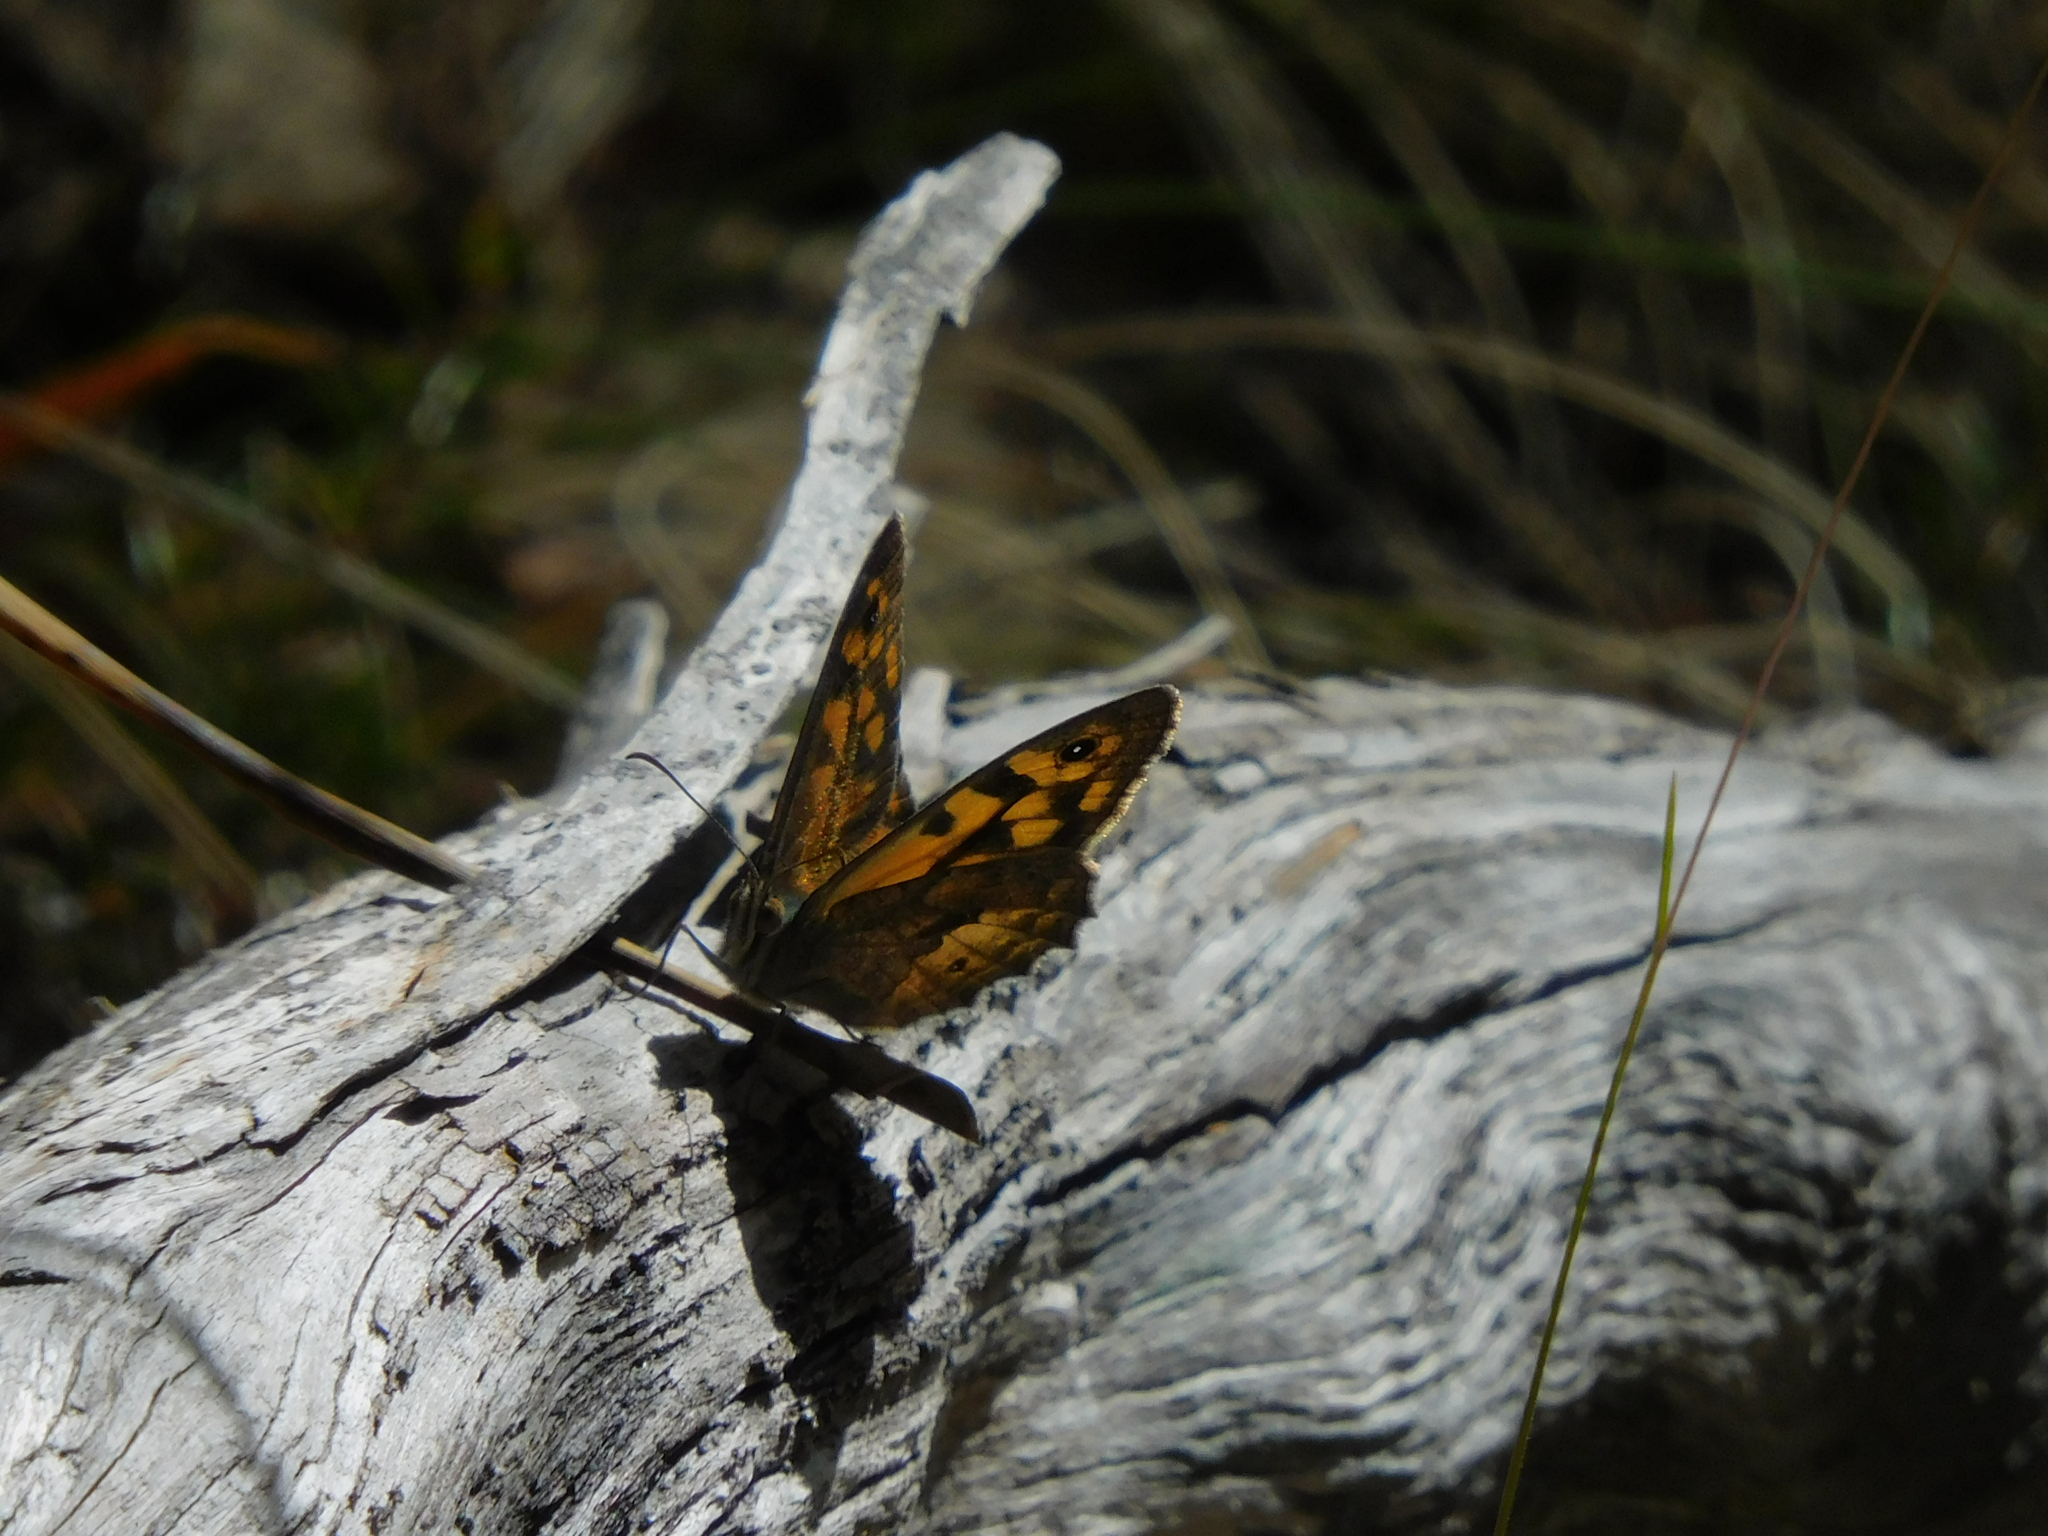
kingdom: Animalia
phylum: Arthropoda
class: Insecta
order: Lepidoptera
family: Nymphalidae
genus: Geitoneura
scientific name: Geitoneura klugii
